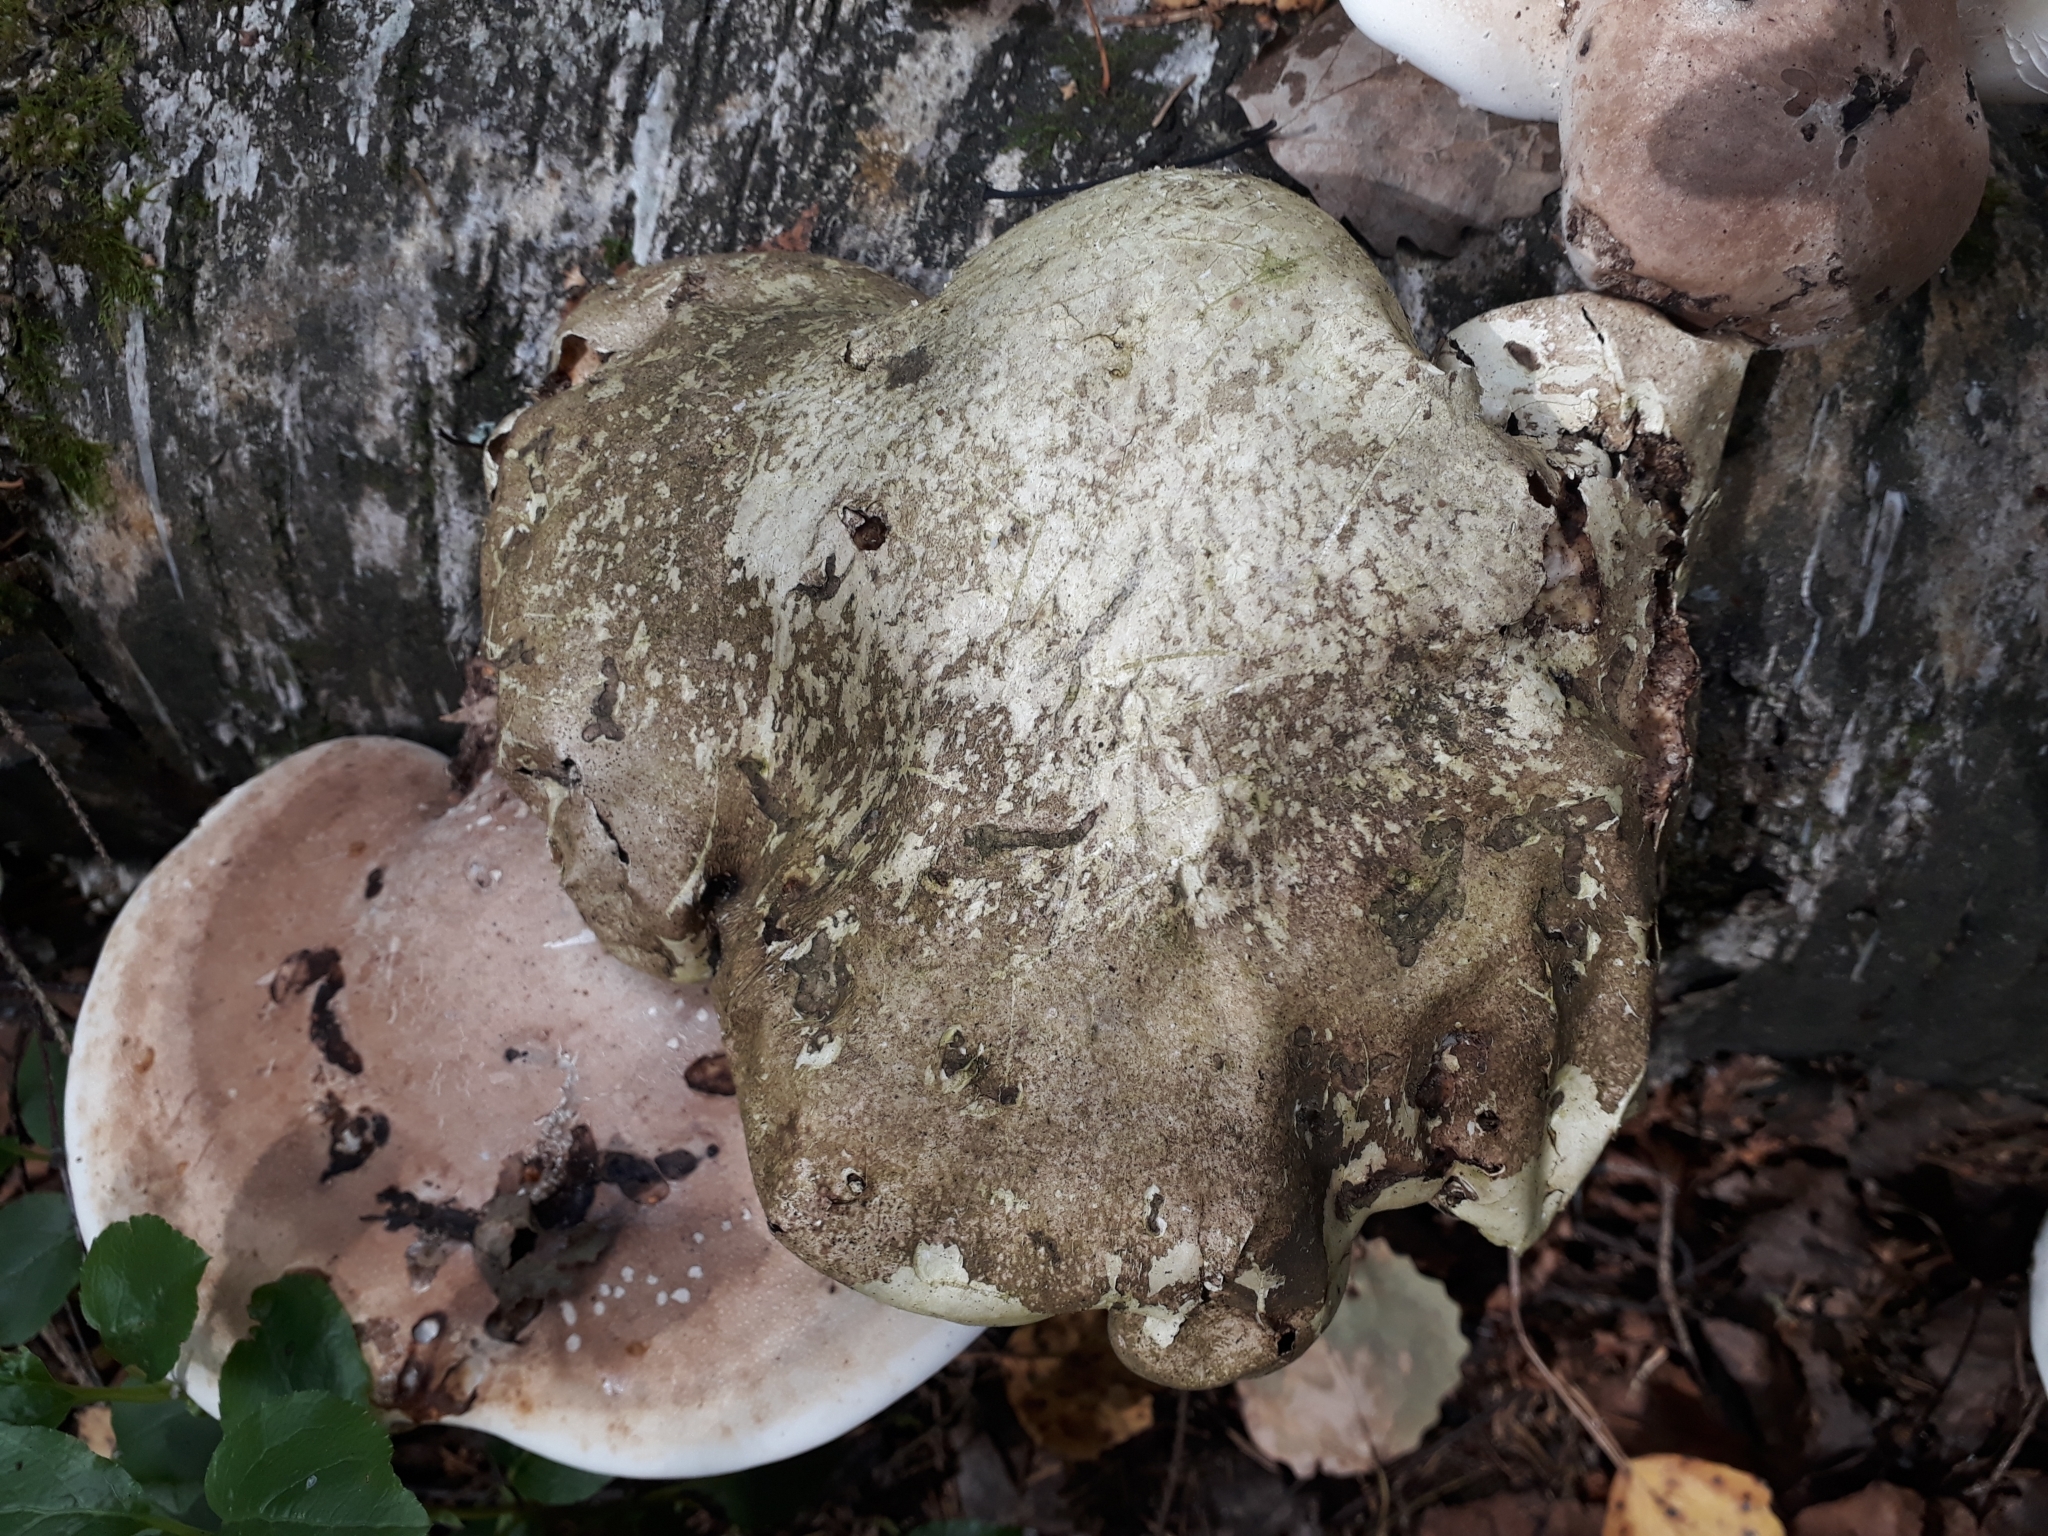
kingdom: Fungi
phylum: Basidiomycota
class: Agaricomycetes
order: Polyporales
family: Fomitopsidaceae
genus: Fomitopsis
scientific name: Fomitopsis betulina
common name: Birch polypore
